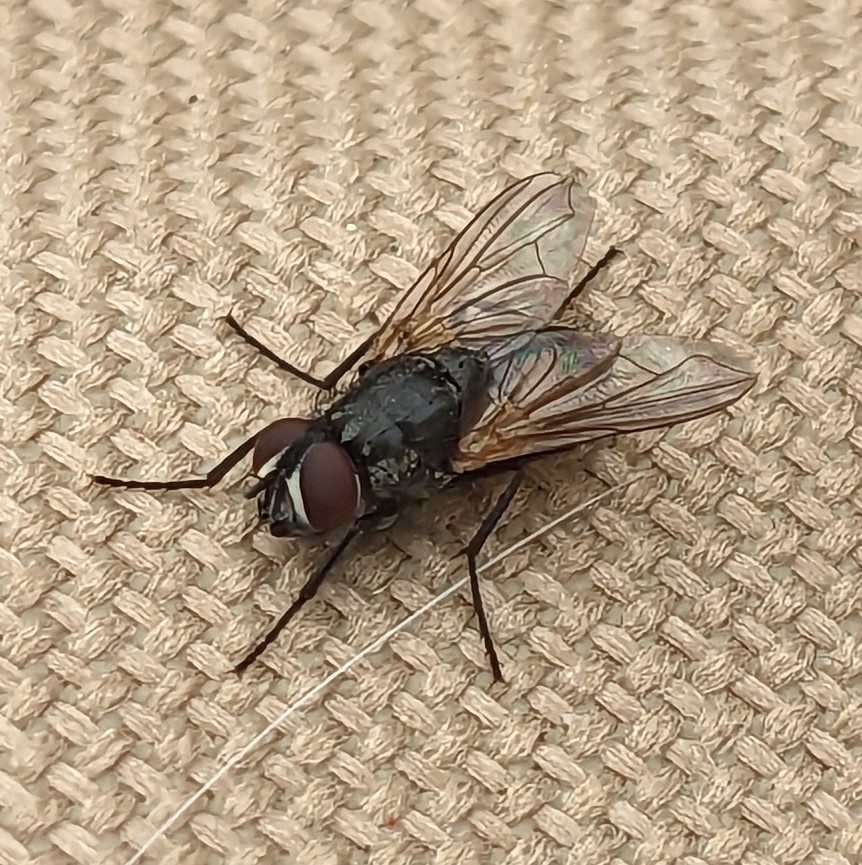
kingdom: Animalia
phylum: Arthropoda
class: Insecta
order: Diptera
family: Muscidae
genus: Musca
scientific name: Musca domestica
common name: House fly
